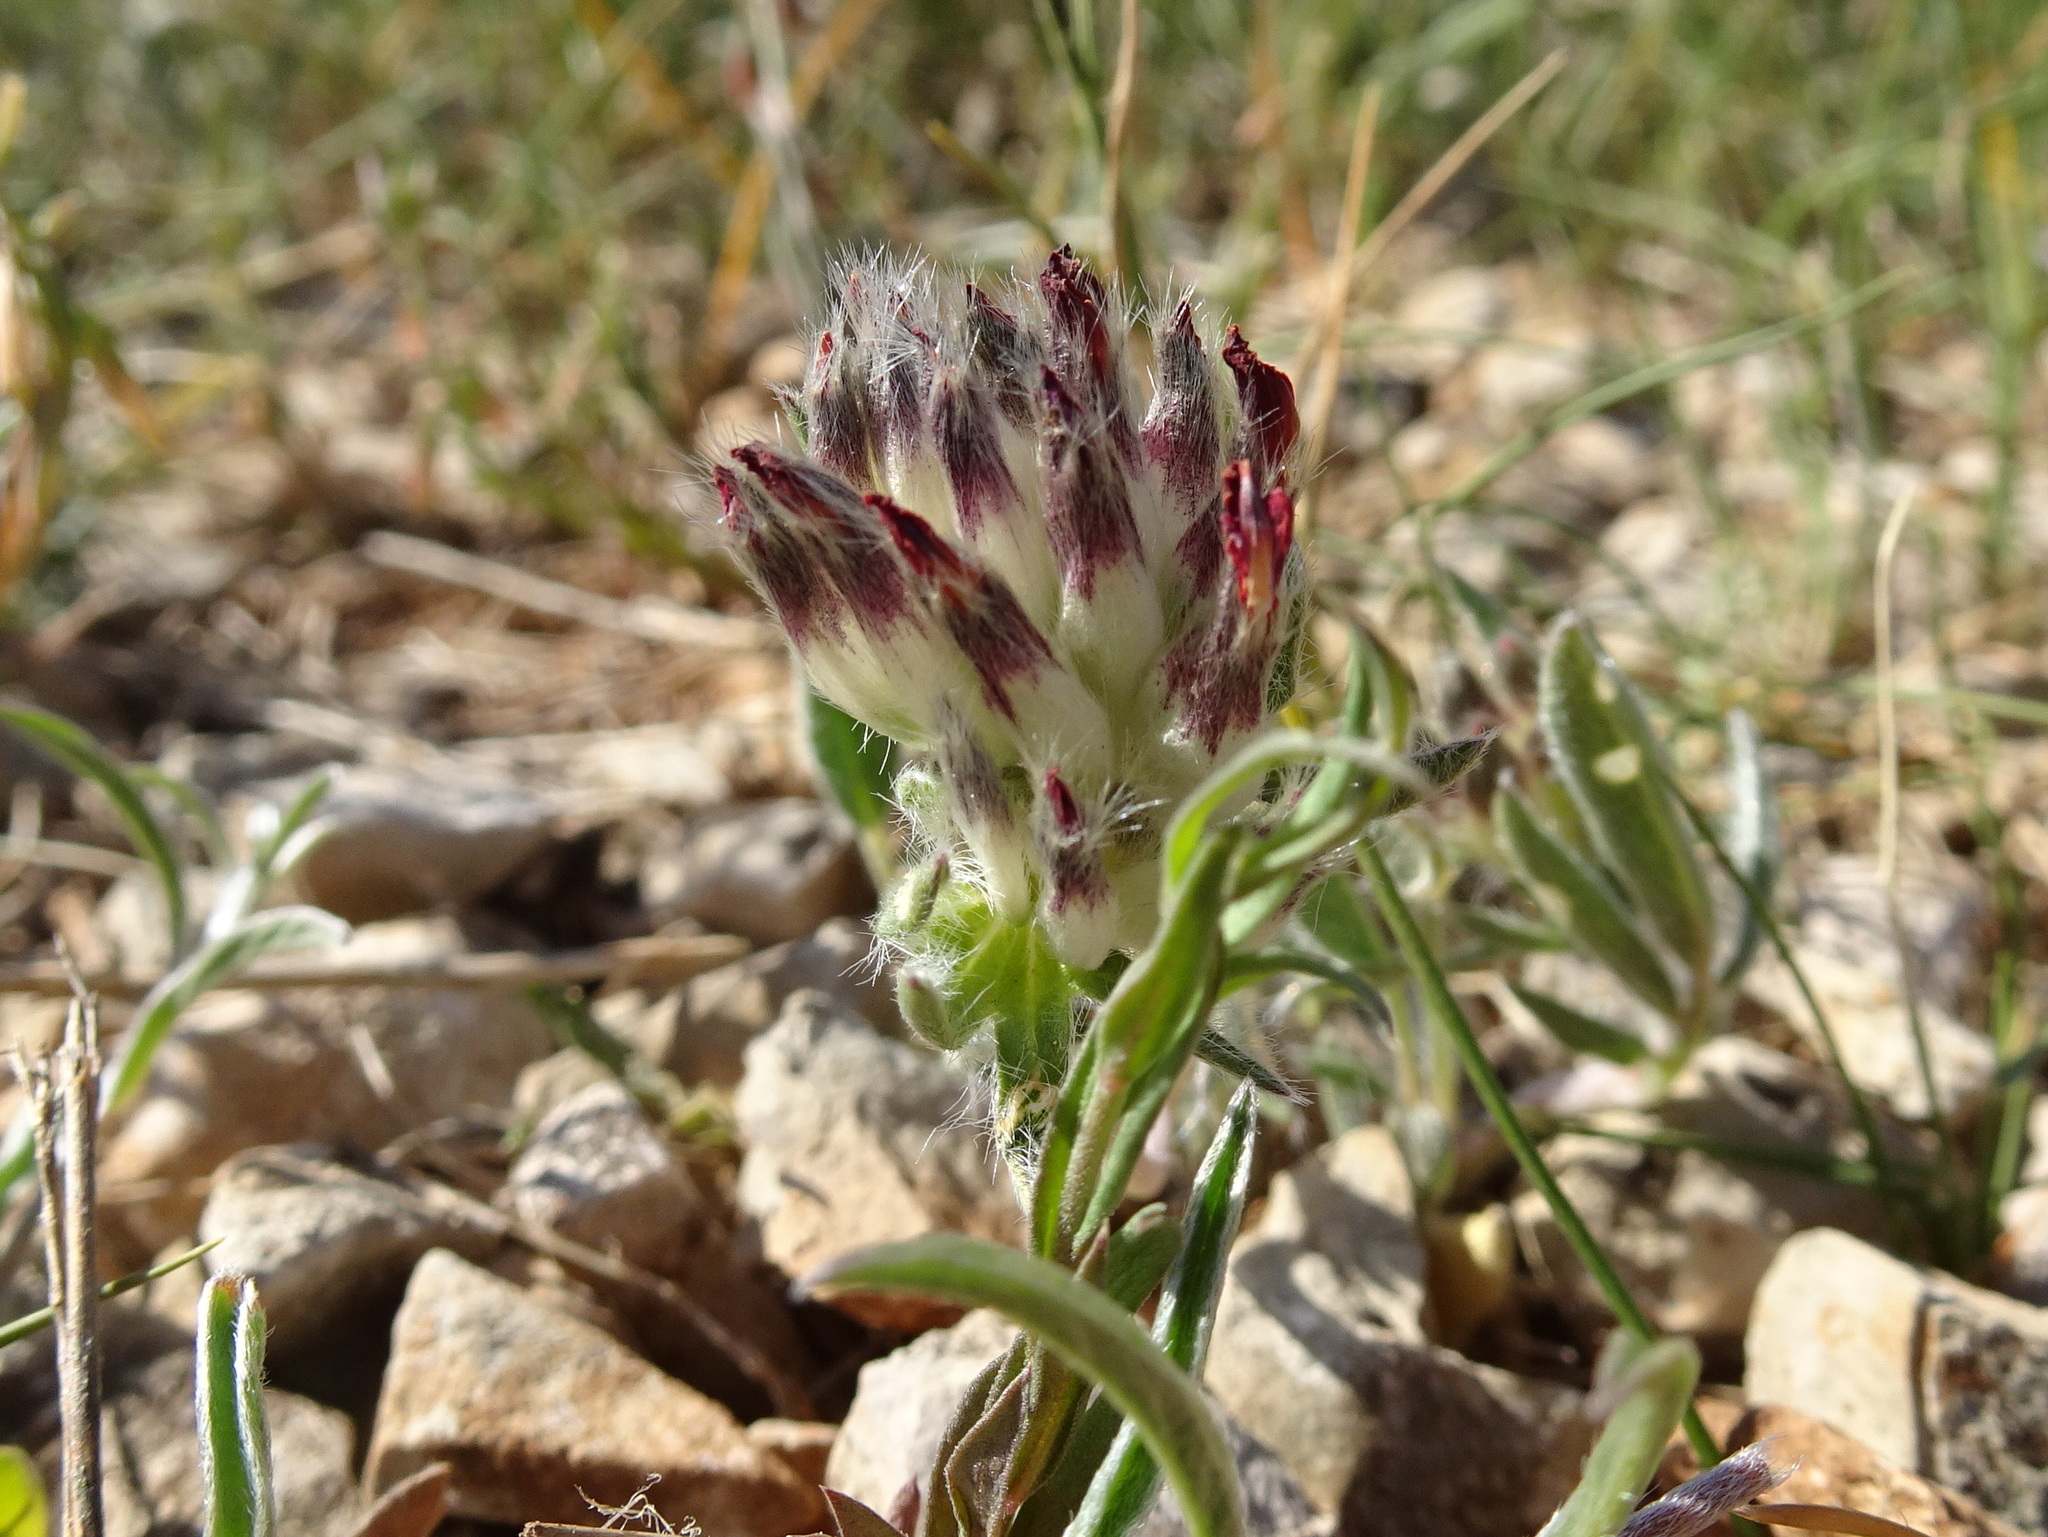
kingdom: Plantae
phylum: Tracheophyta
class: Magnoliopsida
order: Fabales
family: Fabaceae
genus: Anthyllis
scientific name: Anthyllis vulneraria
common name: Kidney vetch
